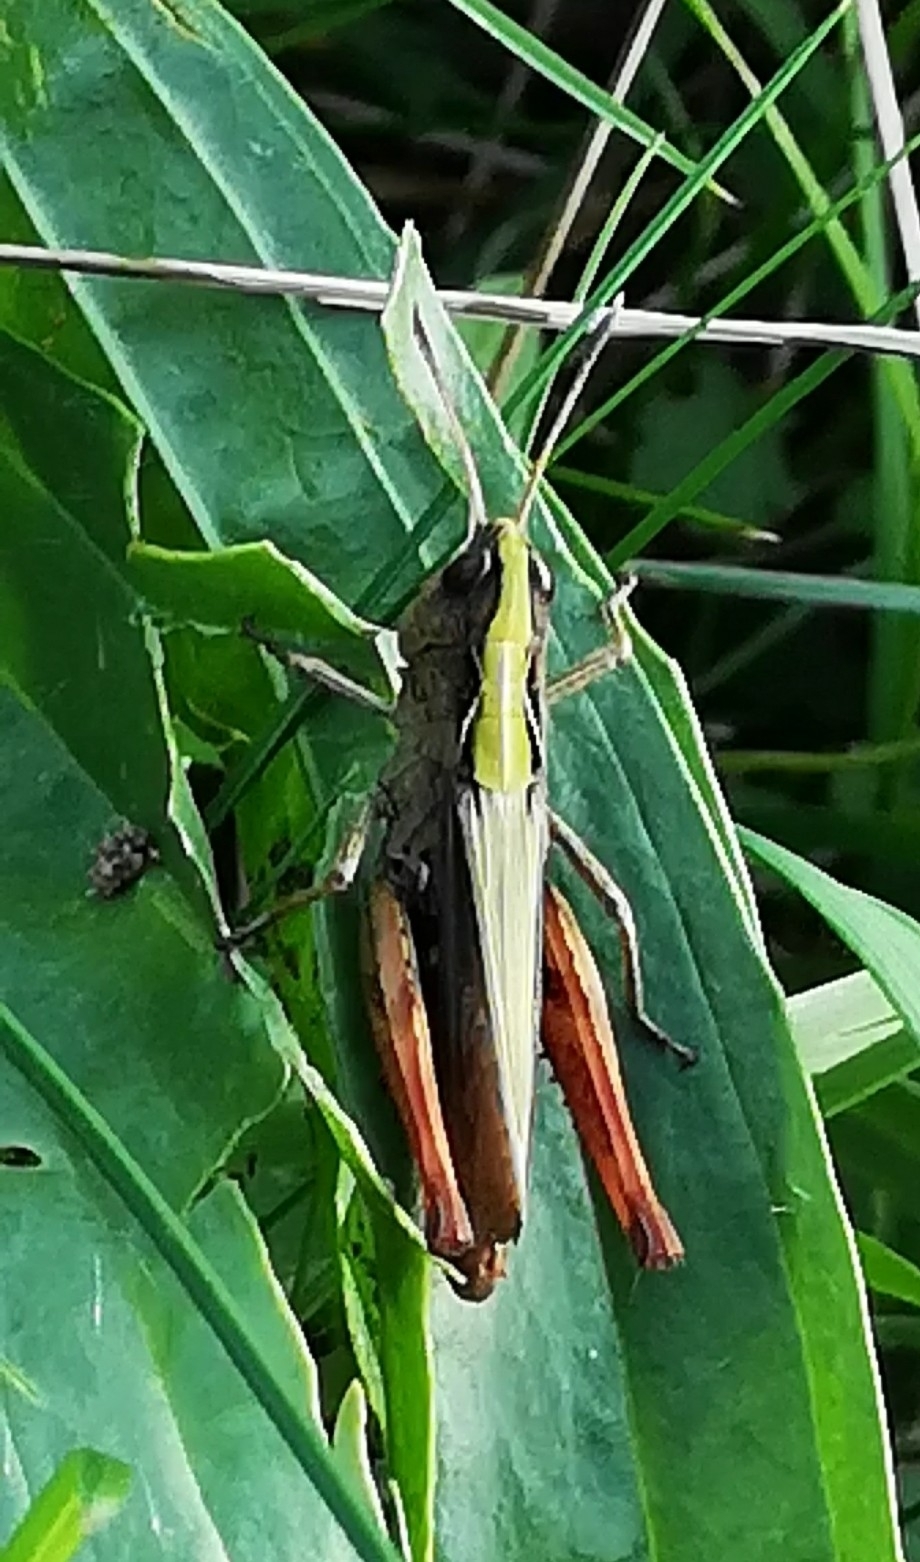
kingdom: Animalia
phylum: Arthropoda
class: Insecta
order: Orthoptera
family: Acrididae
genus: Gomphocerippus
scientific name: Gomphocerippus rufus
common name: Rufous grasshopper
